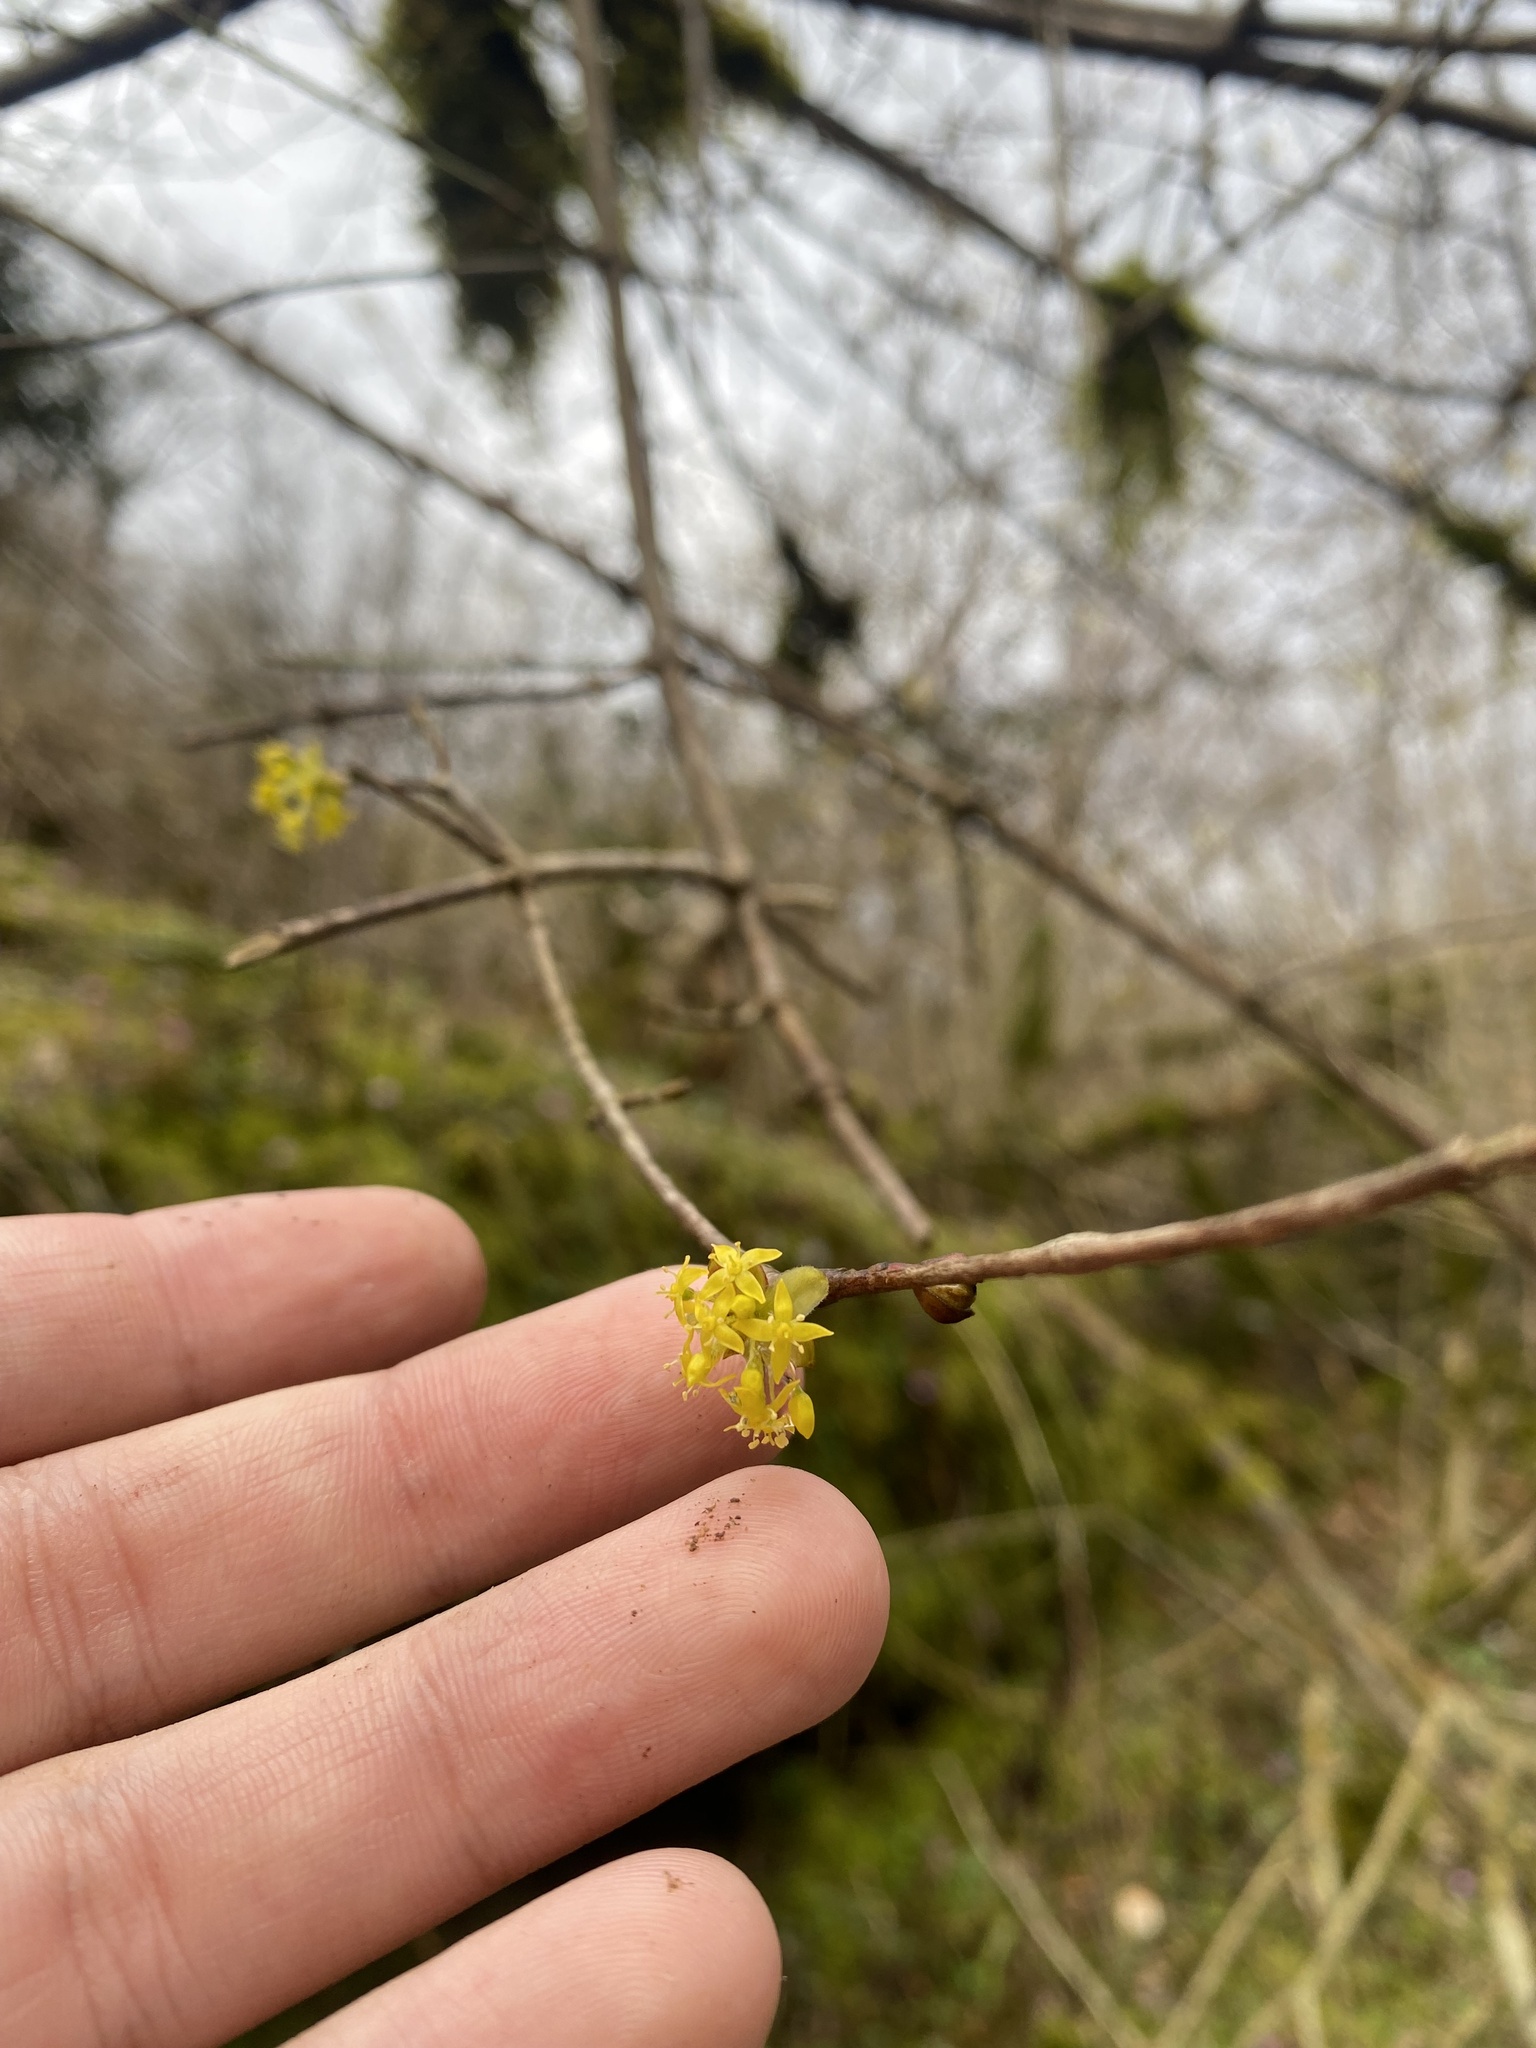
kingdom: Plantae
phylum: Tracheophyta
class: Magnoliopsida
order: Cornales
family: Cornaceae
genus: Cornus
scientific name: Cornus mas
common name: Cornelian-cherry
